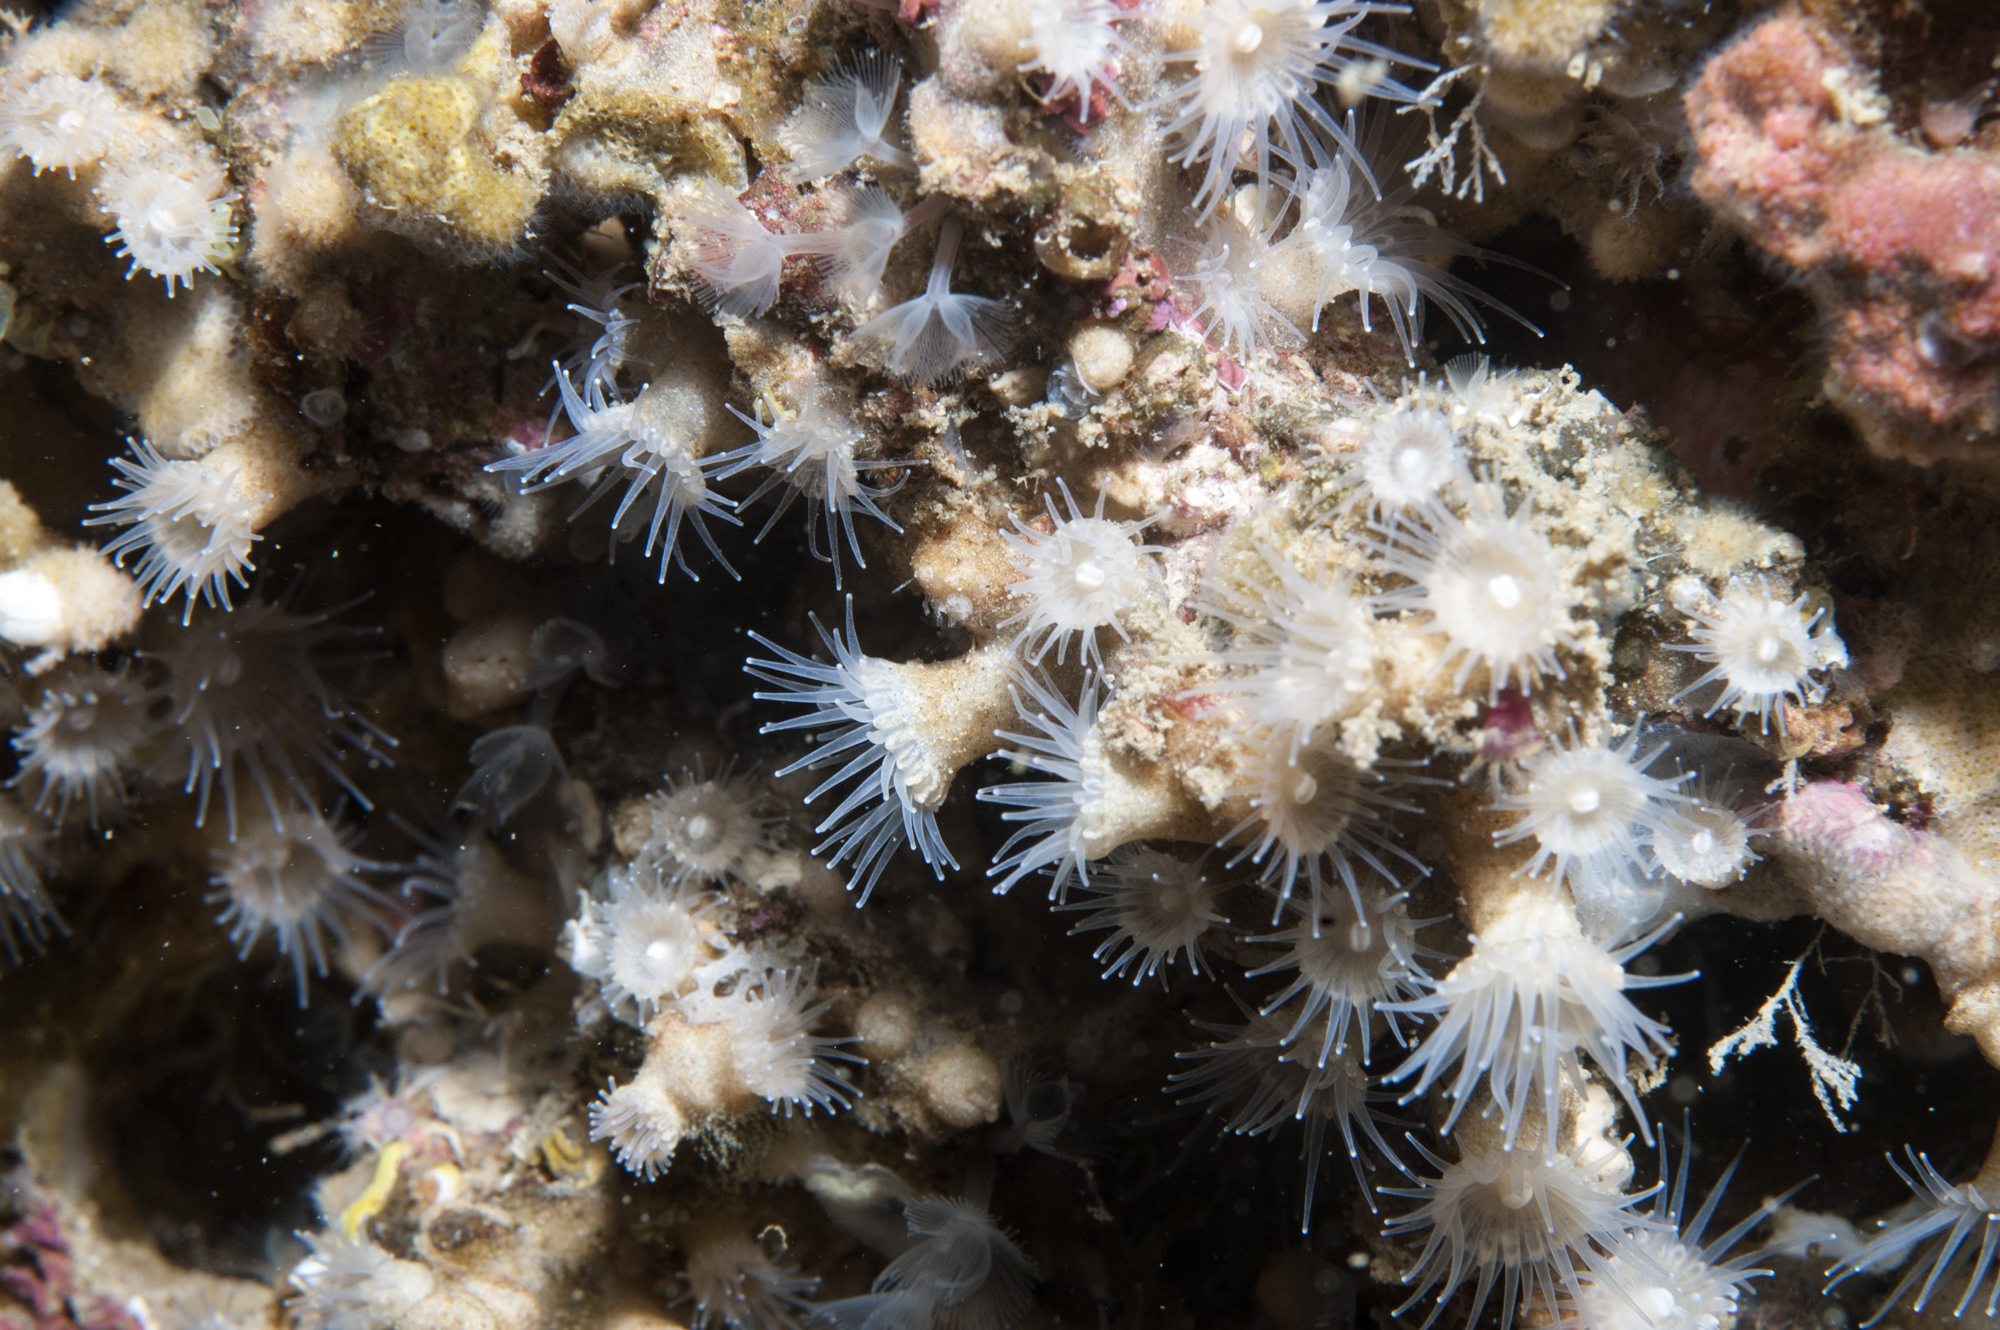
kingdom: Animalia
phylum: Cnidaria
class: Anthozoa
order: Zoantharia
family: Epizoanthidae
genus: Epizoanthus
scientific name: Epizoanthus arenaceus
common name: Gray encrusting anemone
